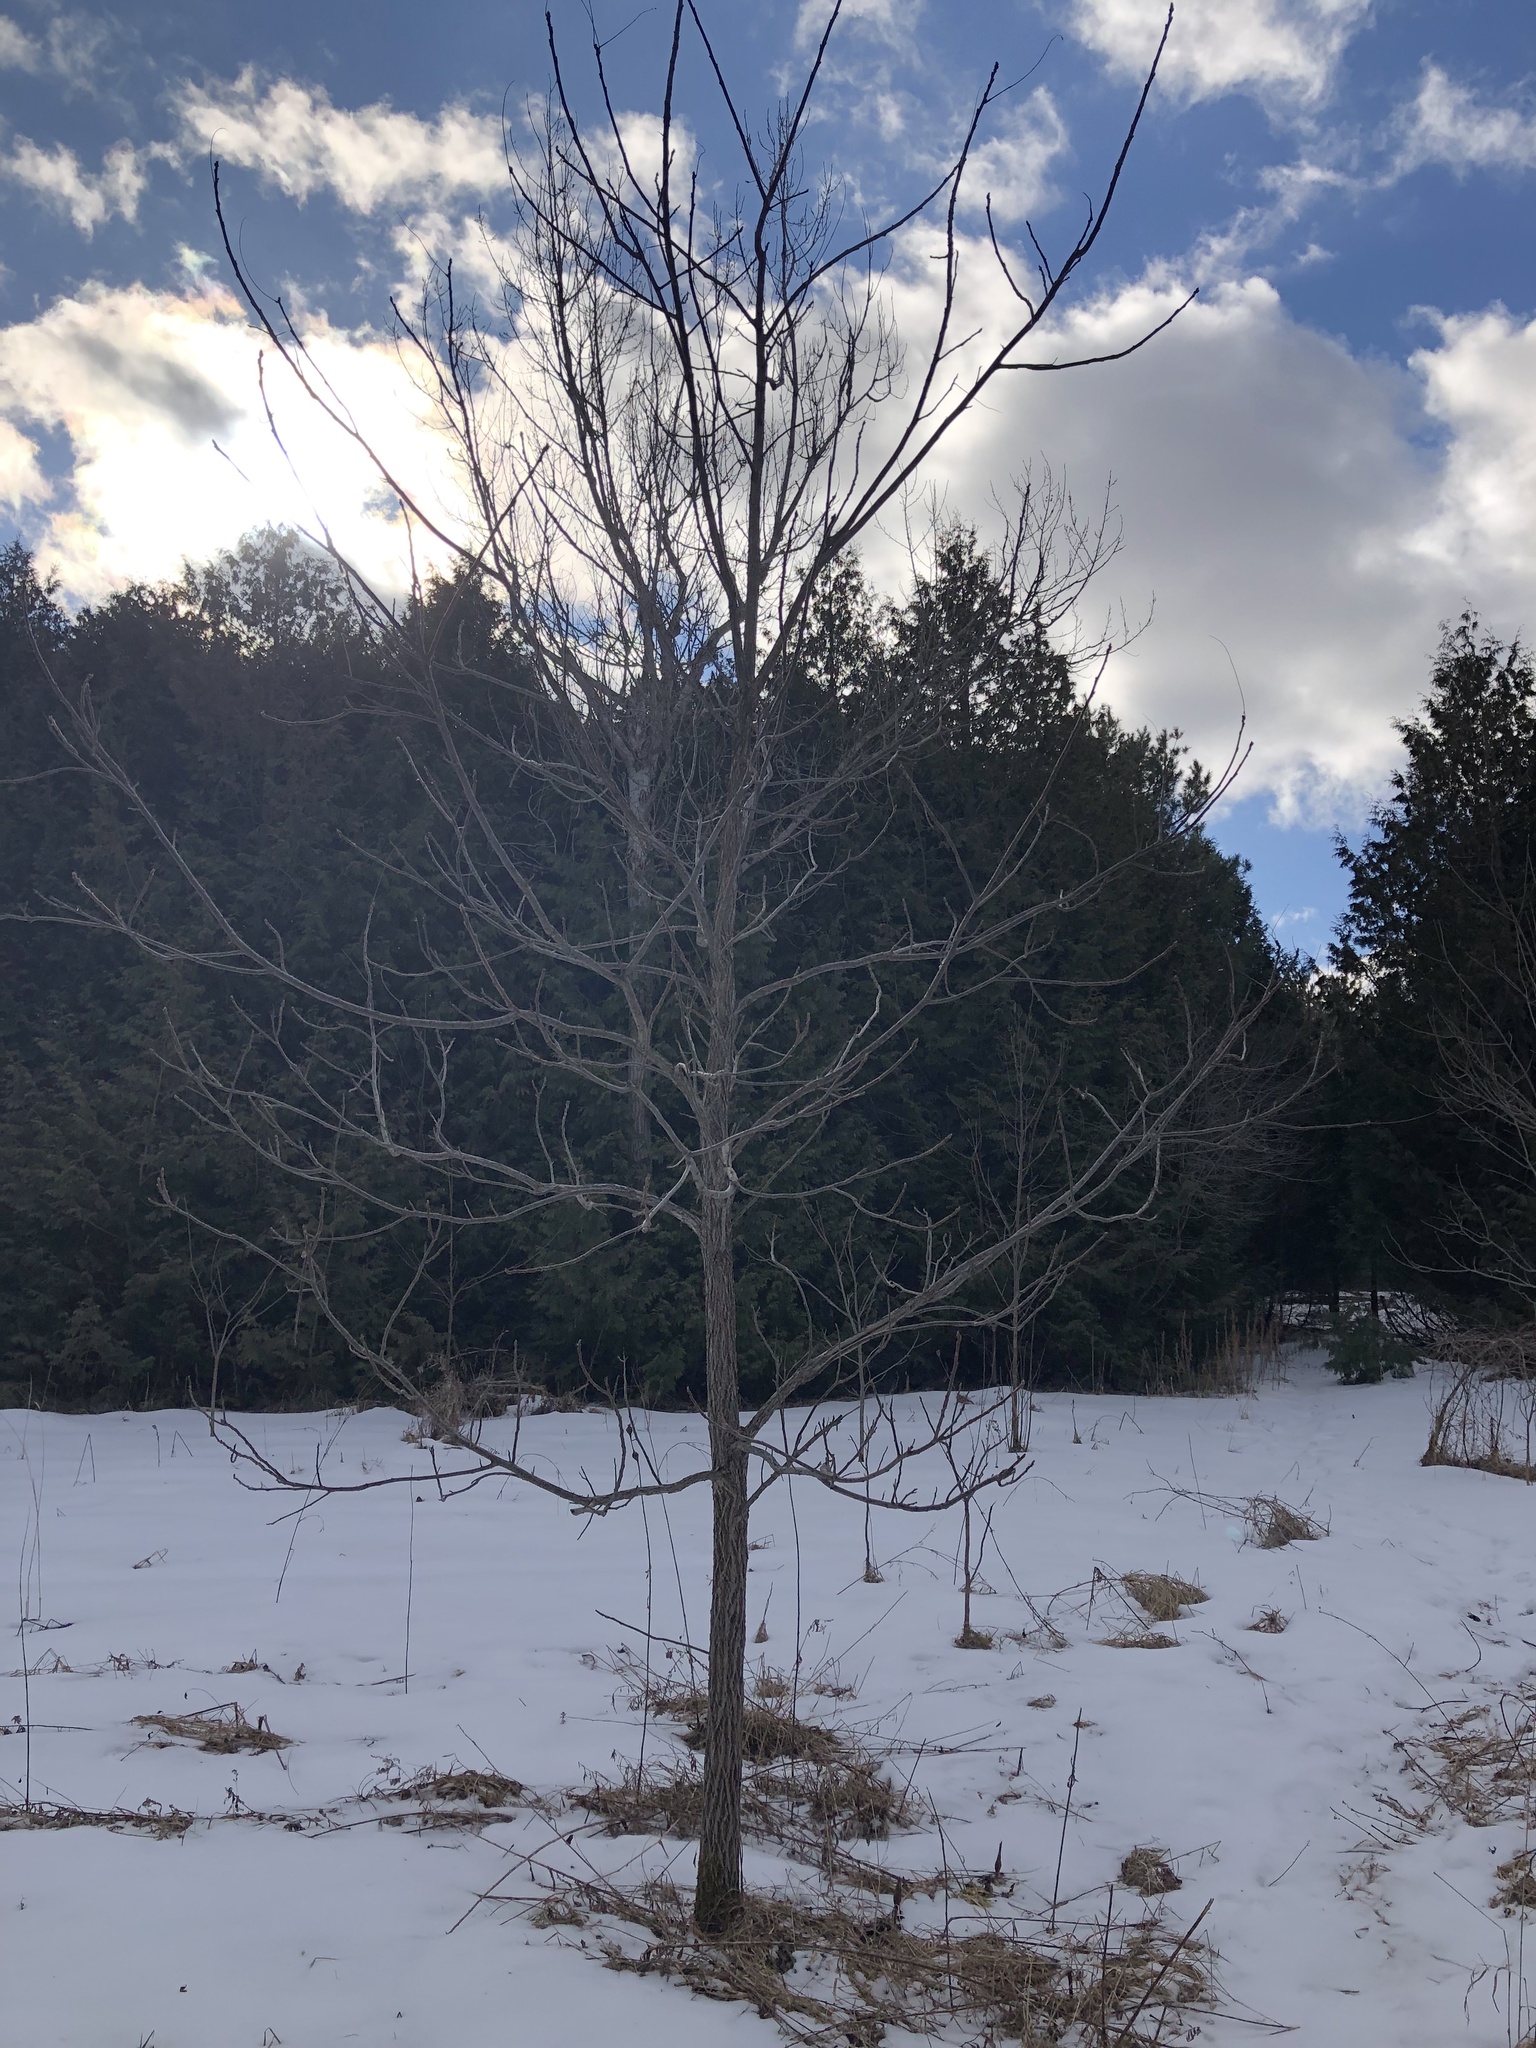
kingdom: Plantae
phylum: Tracheophyta
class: Magnoliopsida
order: Fagales
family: Juglandaceae
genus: Juglans
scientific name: Juglans nigra
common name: Black walnut
